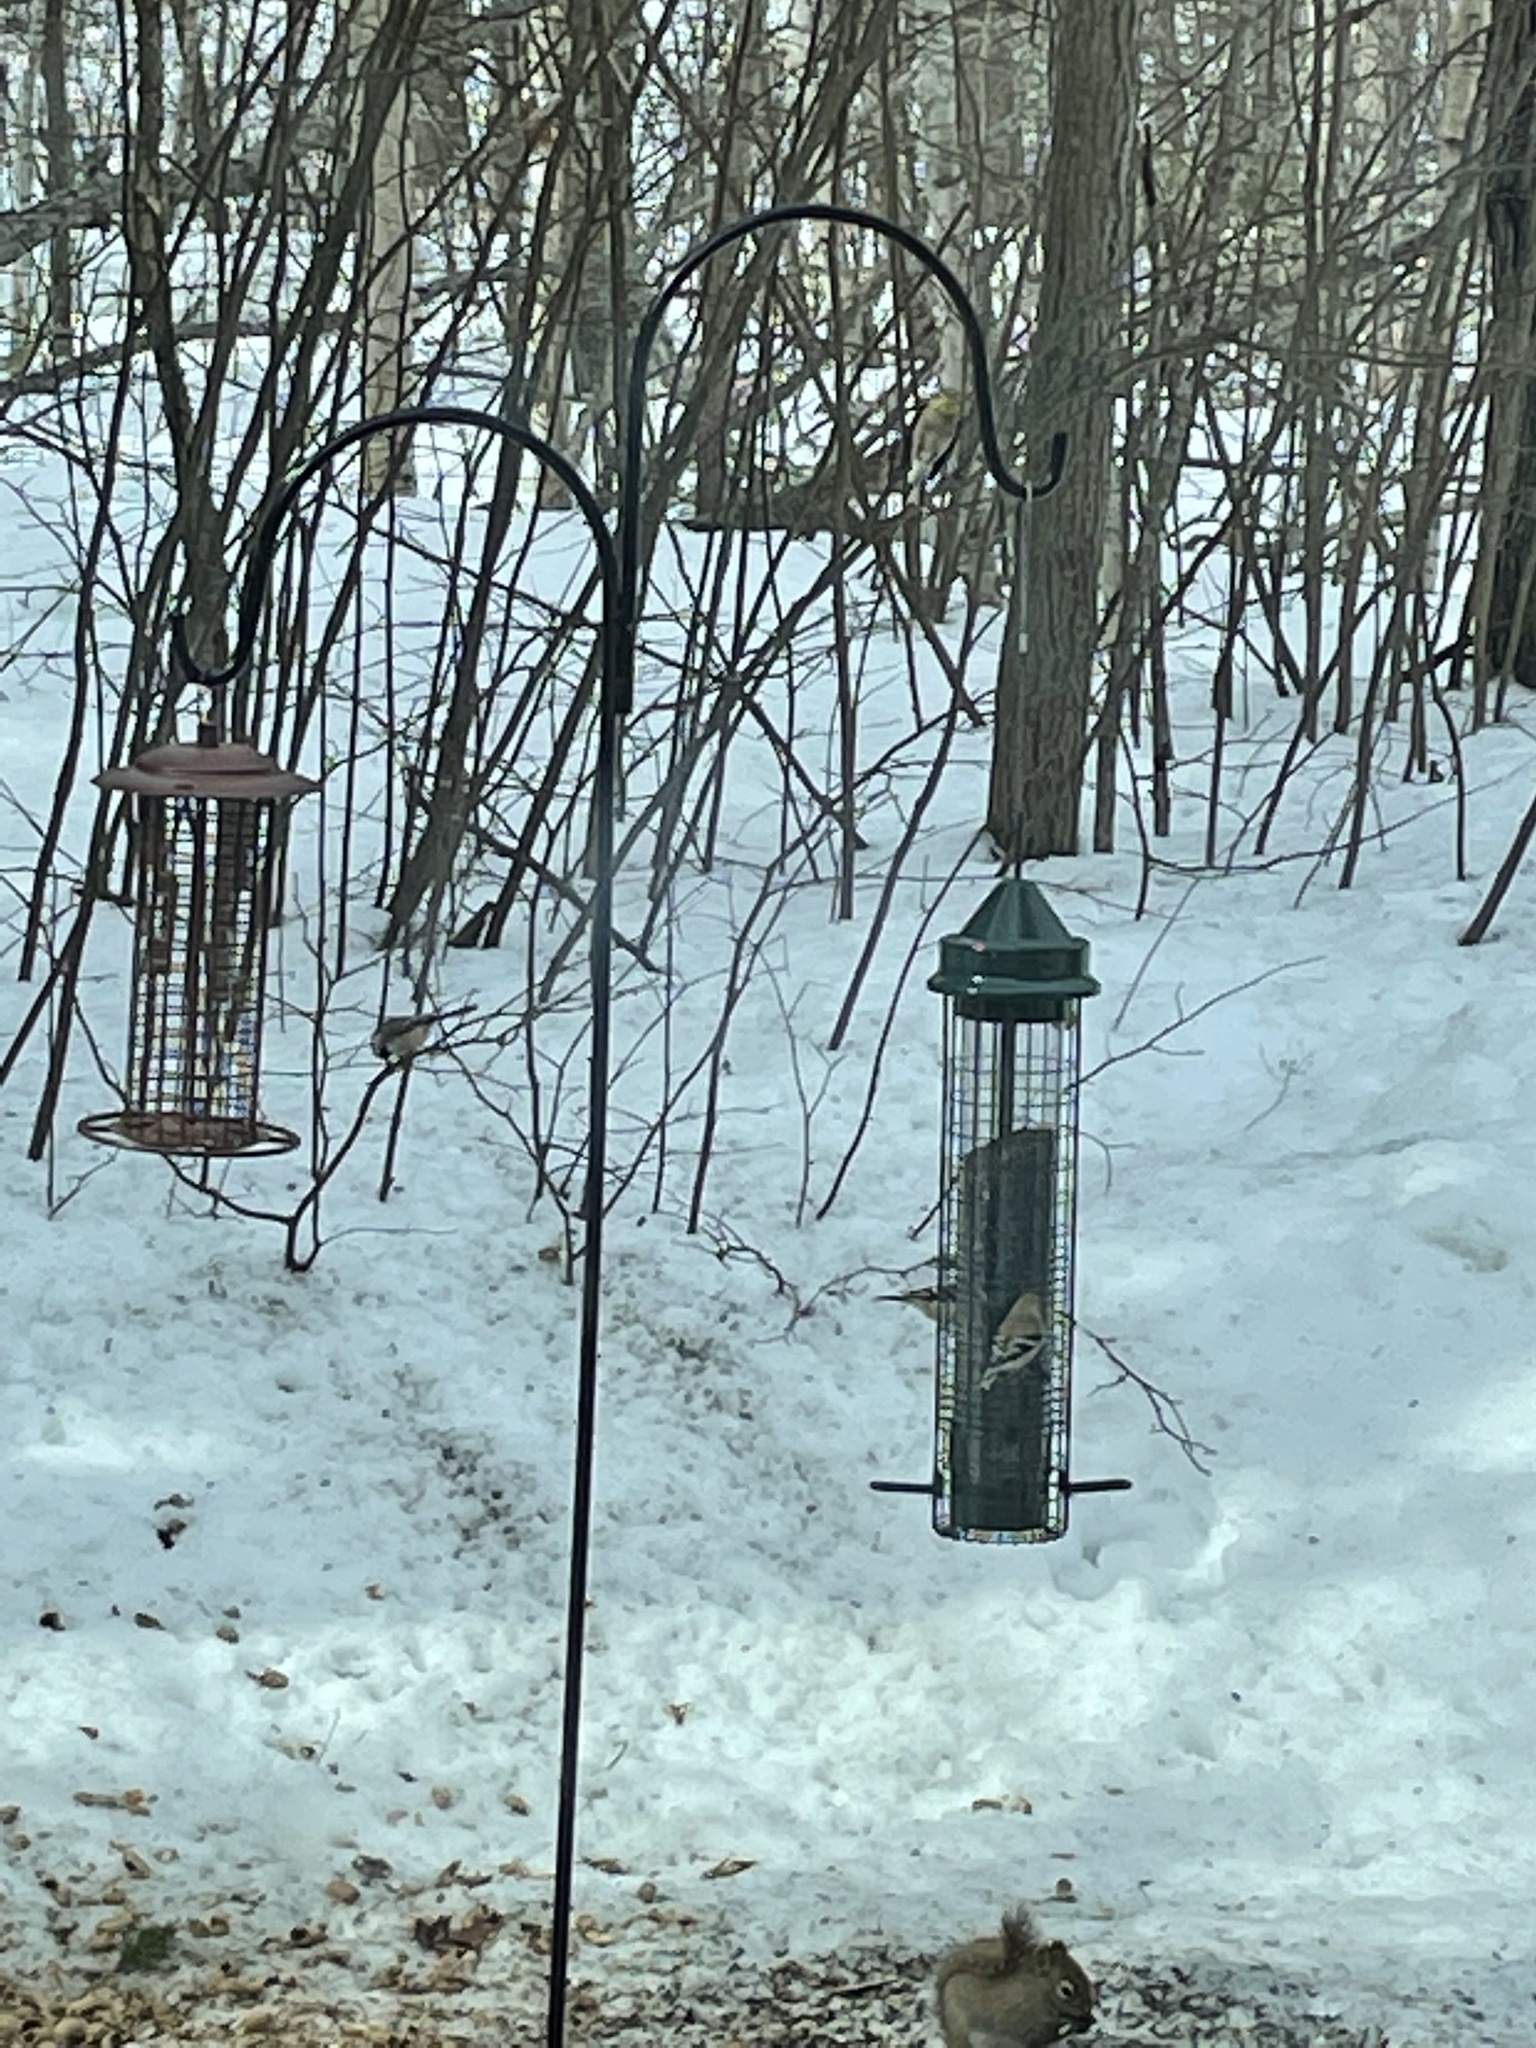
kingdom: Animalia
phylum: Chordata
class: Aves
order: Passeriformes
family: Fringillidae
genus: Spinus
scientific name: Spinus tristis
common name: American goldfinch
